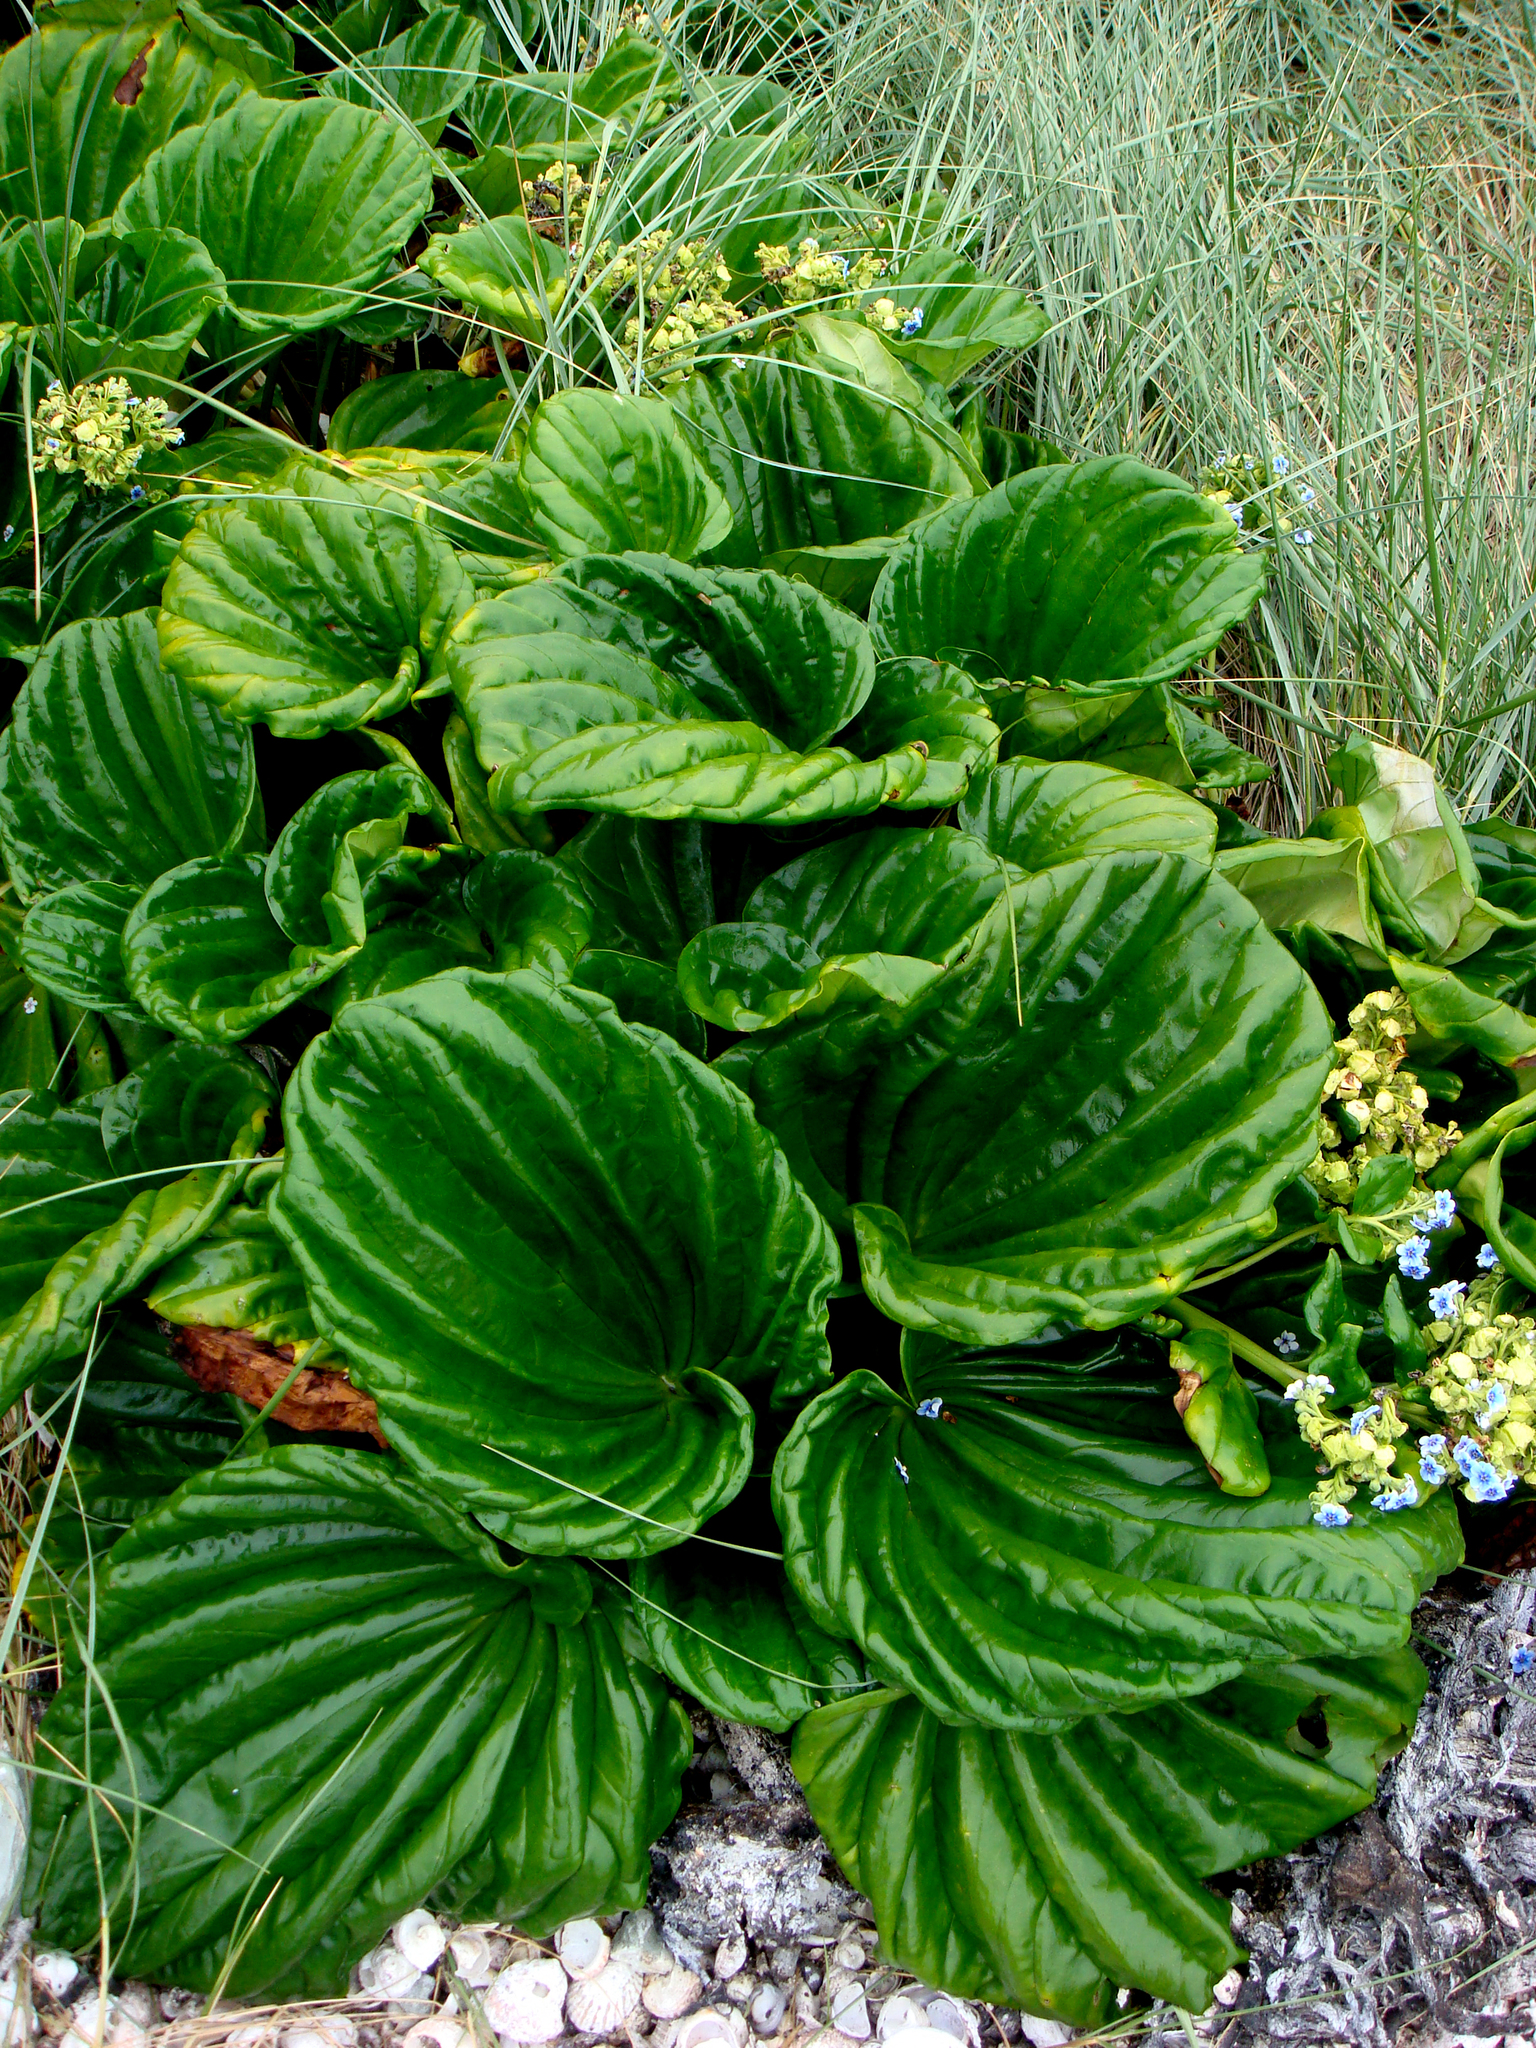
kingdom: Plantae
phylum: Tracheophyta
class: Magnoliopsida
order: Boraginales
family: Boraginaceae
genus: Myosotidium
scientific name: Myosotidium hortensia
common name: Giant forget-me-not
